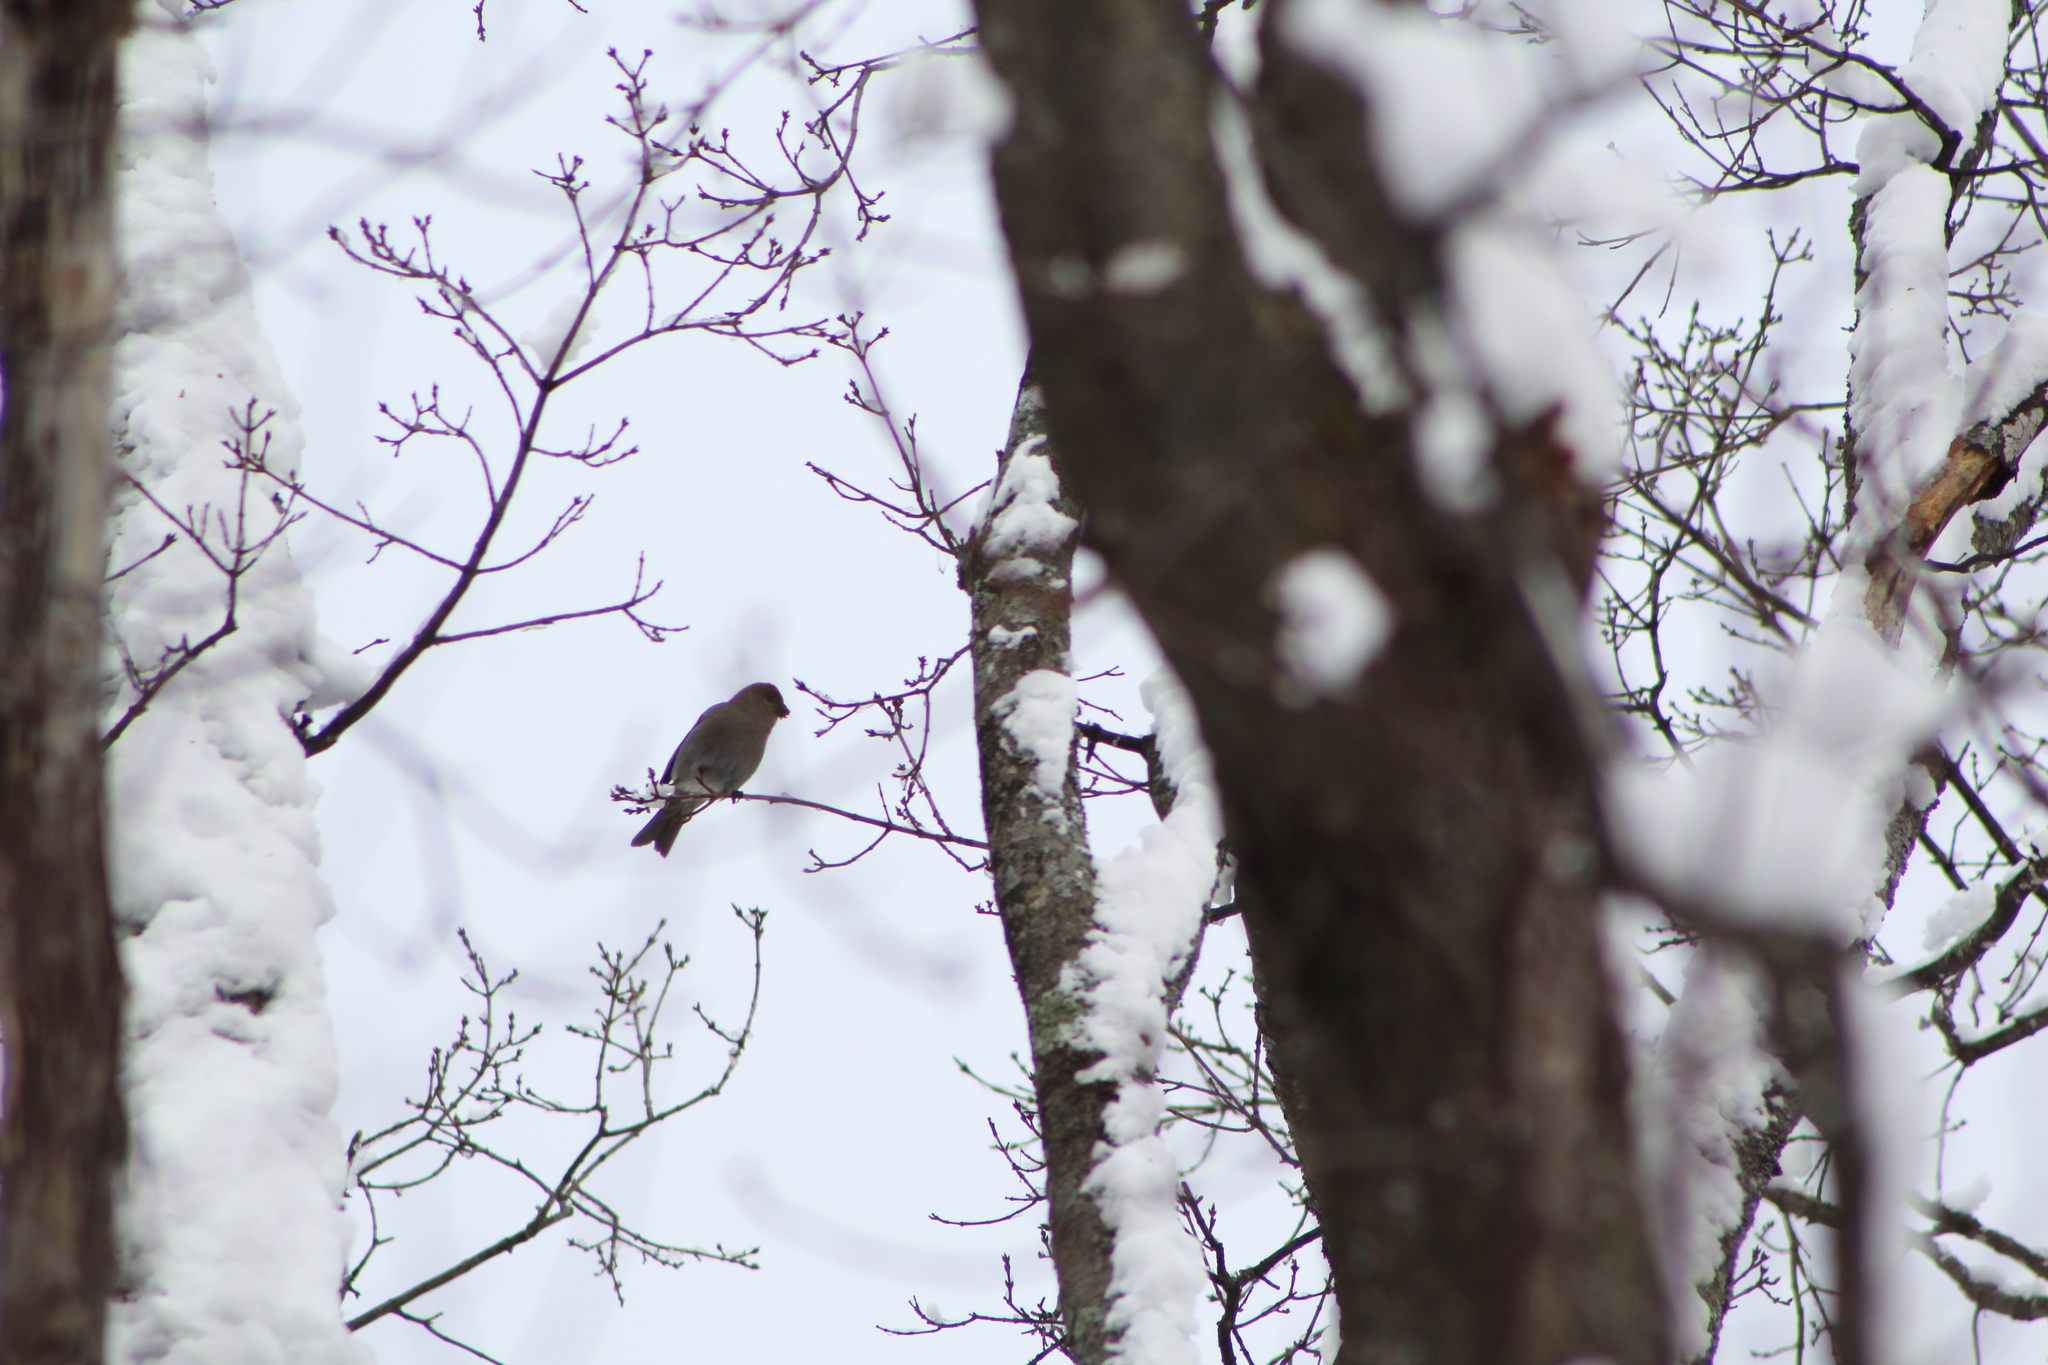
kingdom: Animalia
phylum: Chordata
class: Aves
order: Passeriformes
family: Fringillidae
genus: Pinicola
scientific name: Pinicola enucleator
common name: Pine grosbeak
